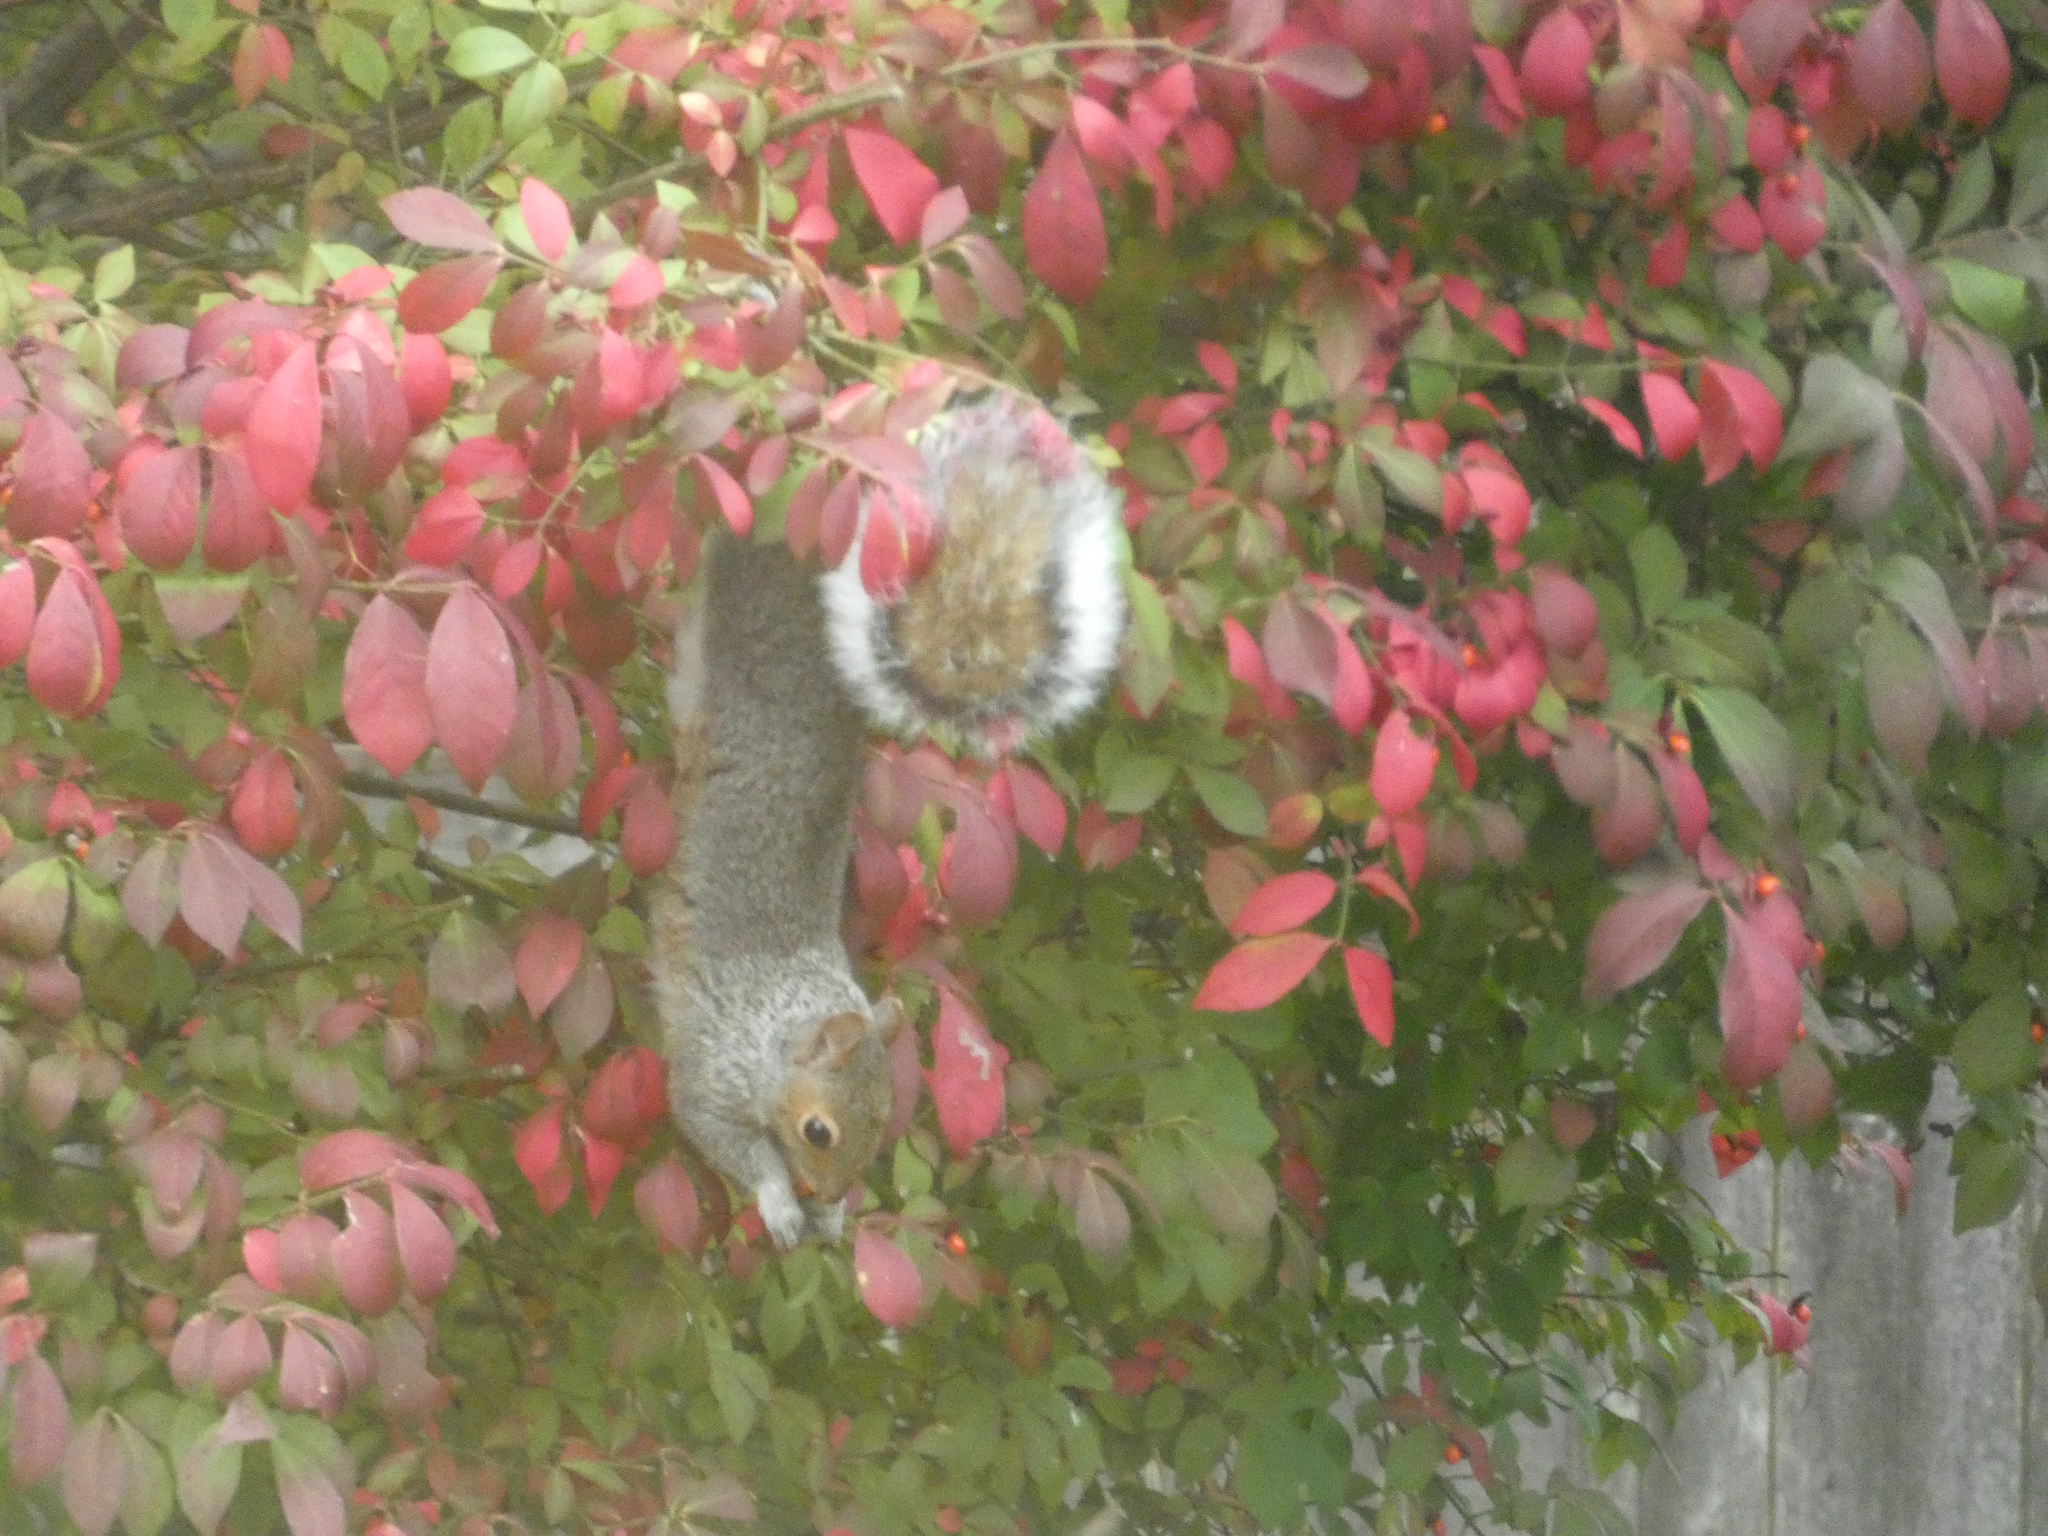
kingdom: Animalia
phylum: Chordata
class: Mammalia
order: Rodentia
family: Sciuridae
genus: Sciurus
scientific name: Sciurus carolinensis
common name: Eastern gray squirrel
